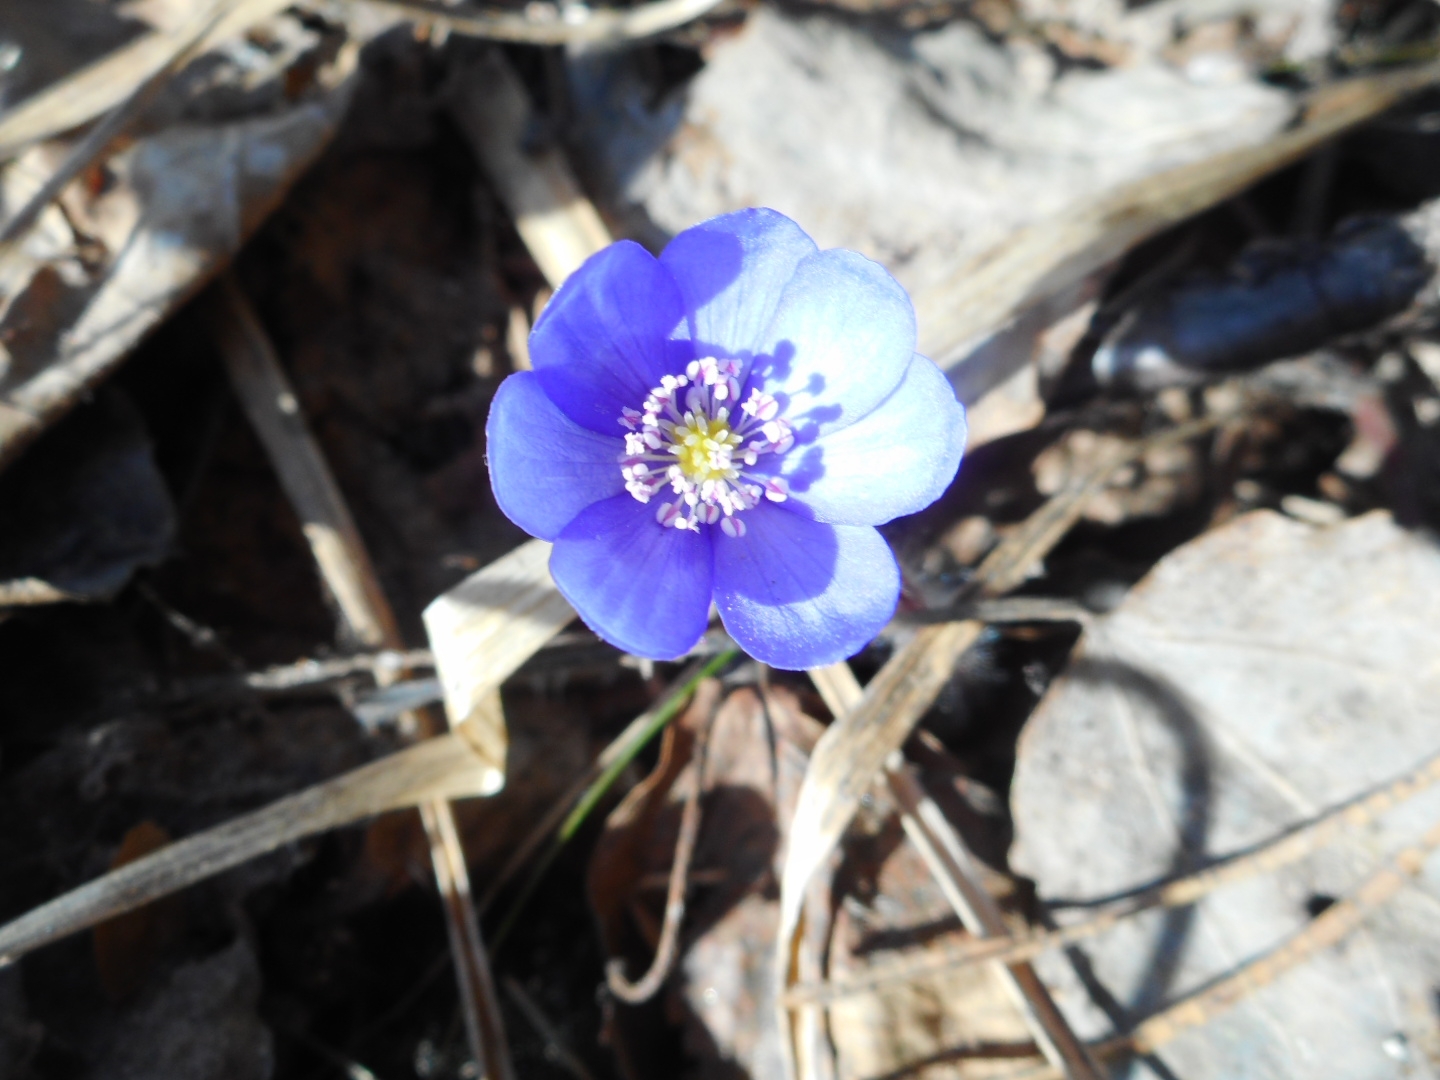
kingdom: Plantae
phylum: Tracheophyta
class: Magnoliopsida
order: Ranunculales
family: Ranunculaceae
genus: Hepatica
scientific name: Hepatica nobilis
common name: Liverleaf
